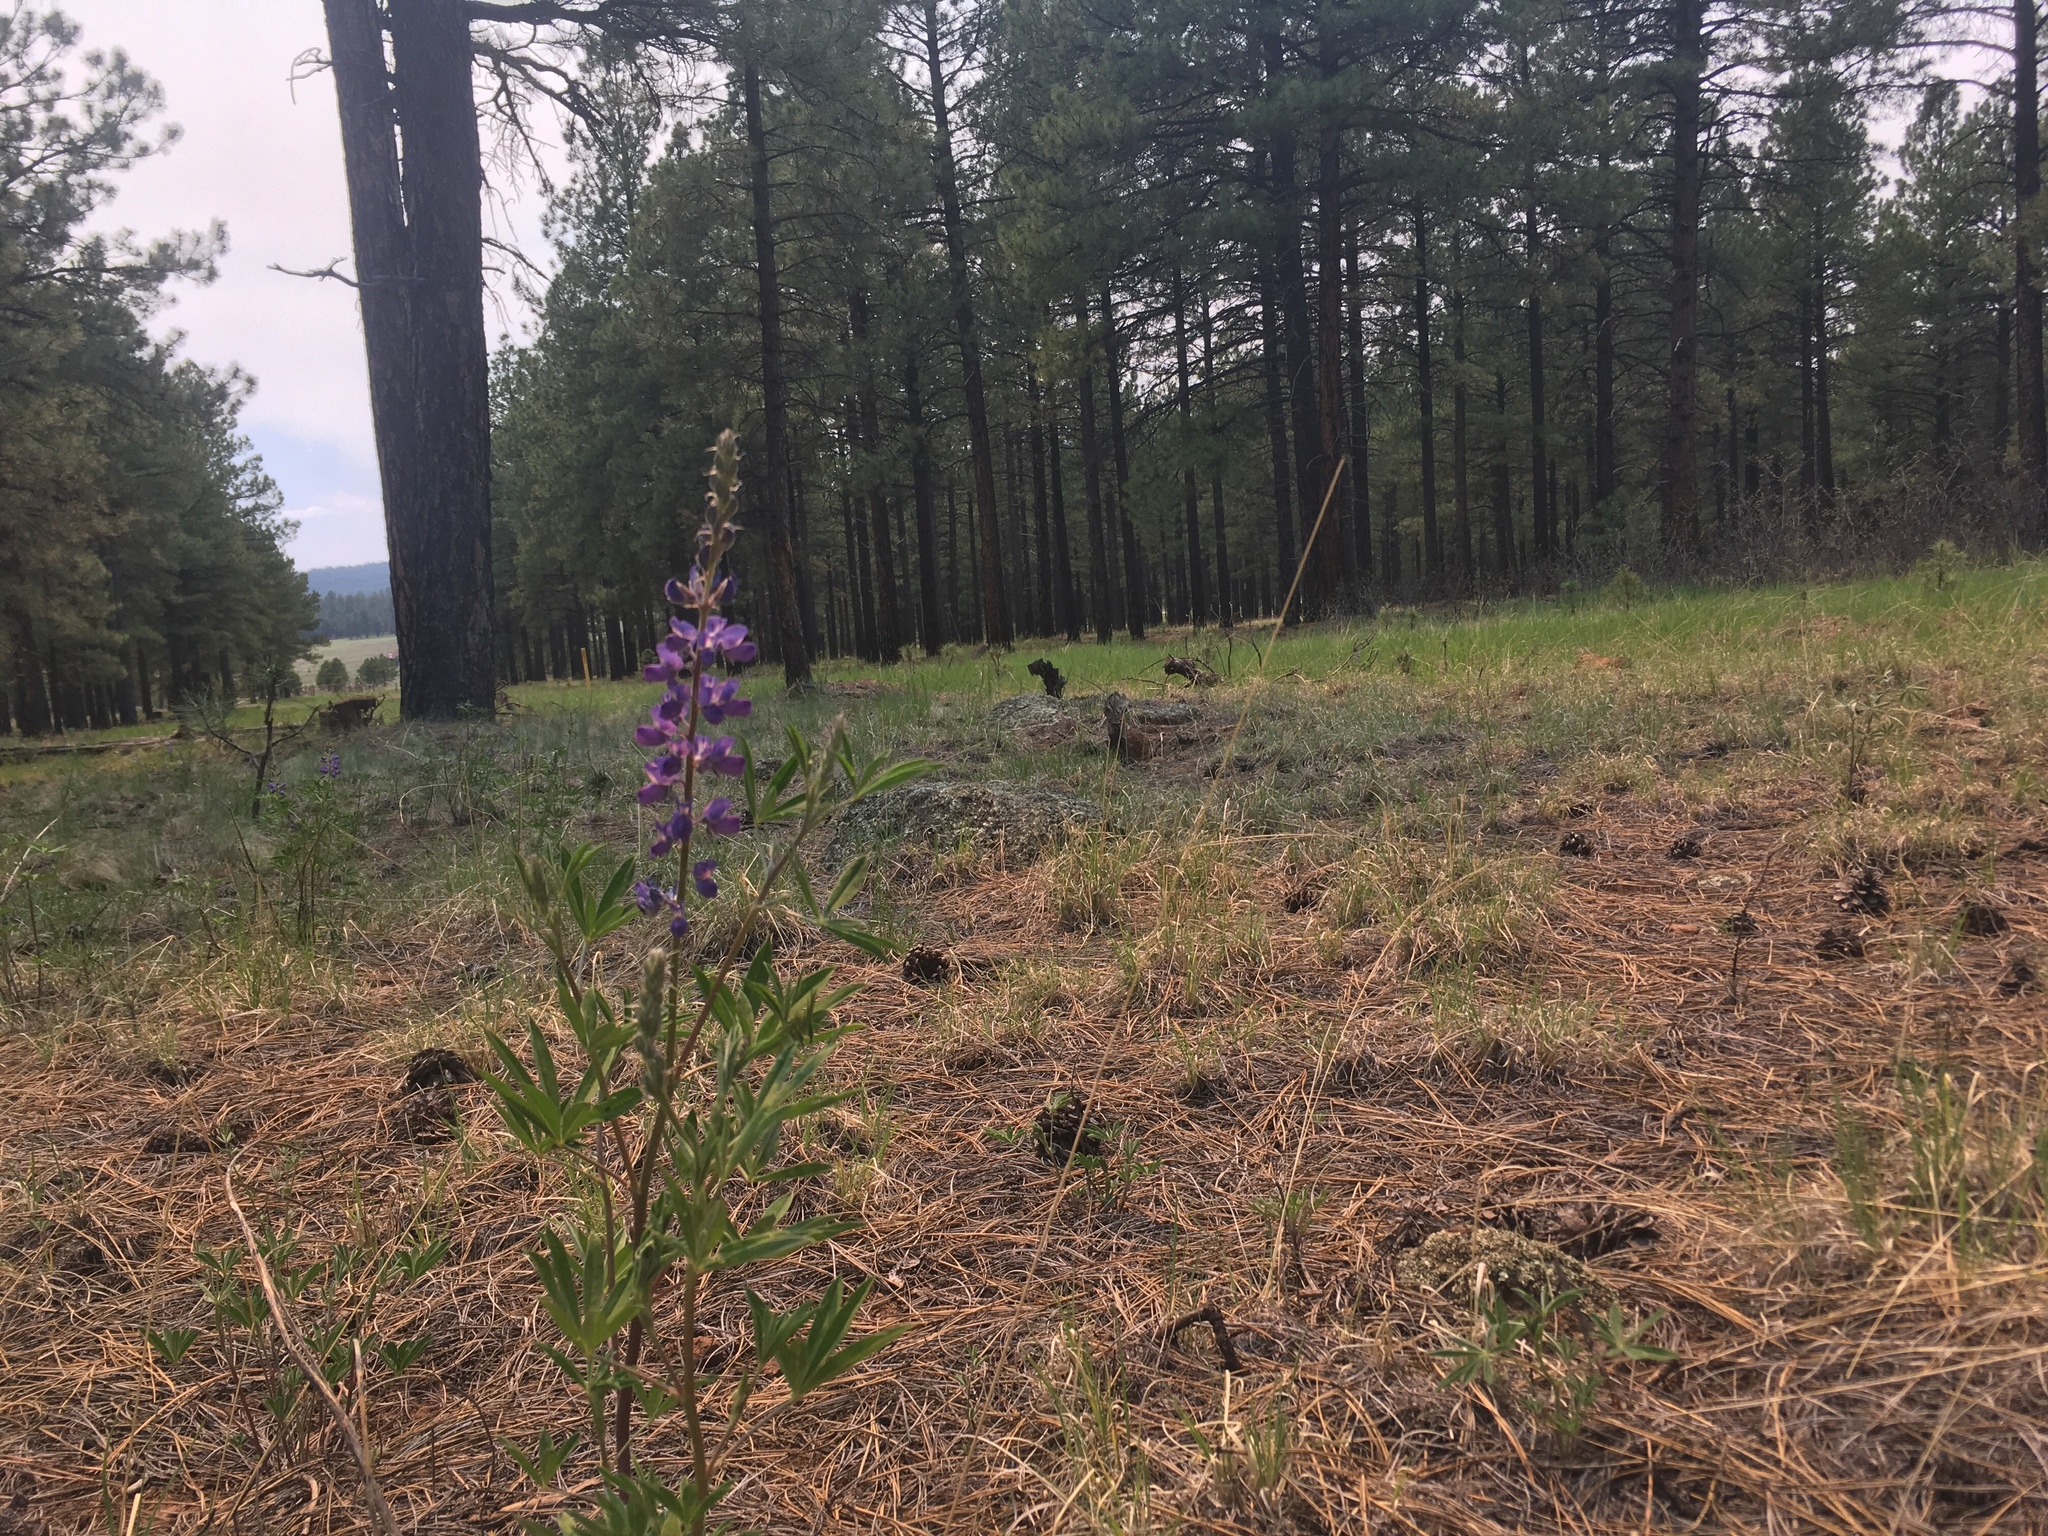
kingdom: Plantae
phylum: Tracheophyta
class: Magnoliopsida
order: Fabales
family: Fabaceae
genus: Lupinus
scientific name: Lupinus argenteus
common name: Silvery lupine
